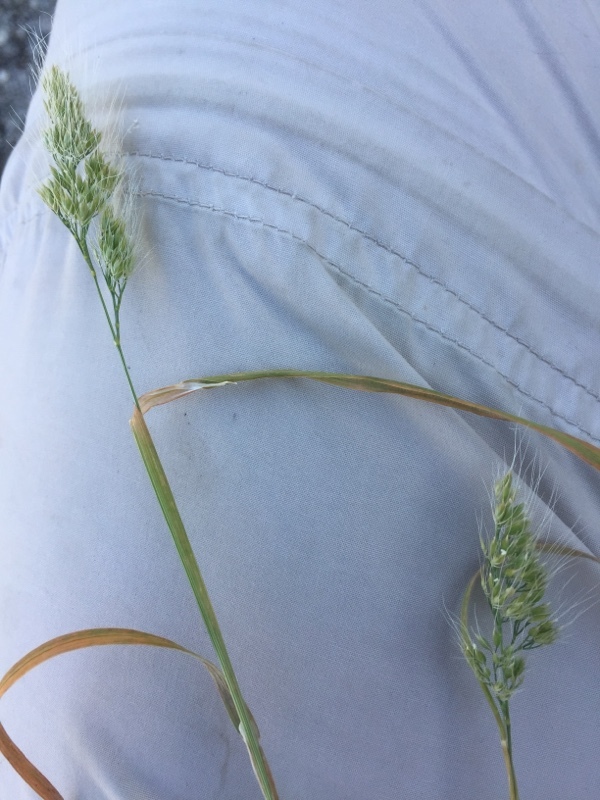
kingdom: Plantae
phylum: Tracheophyta
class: Liliopsida
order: Poales
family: Poaceae
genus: Cynosurus
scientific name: Cynosurus echinatus
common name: Rough dog's-tail
